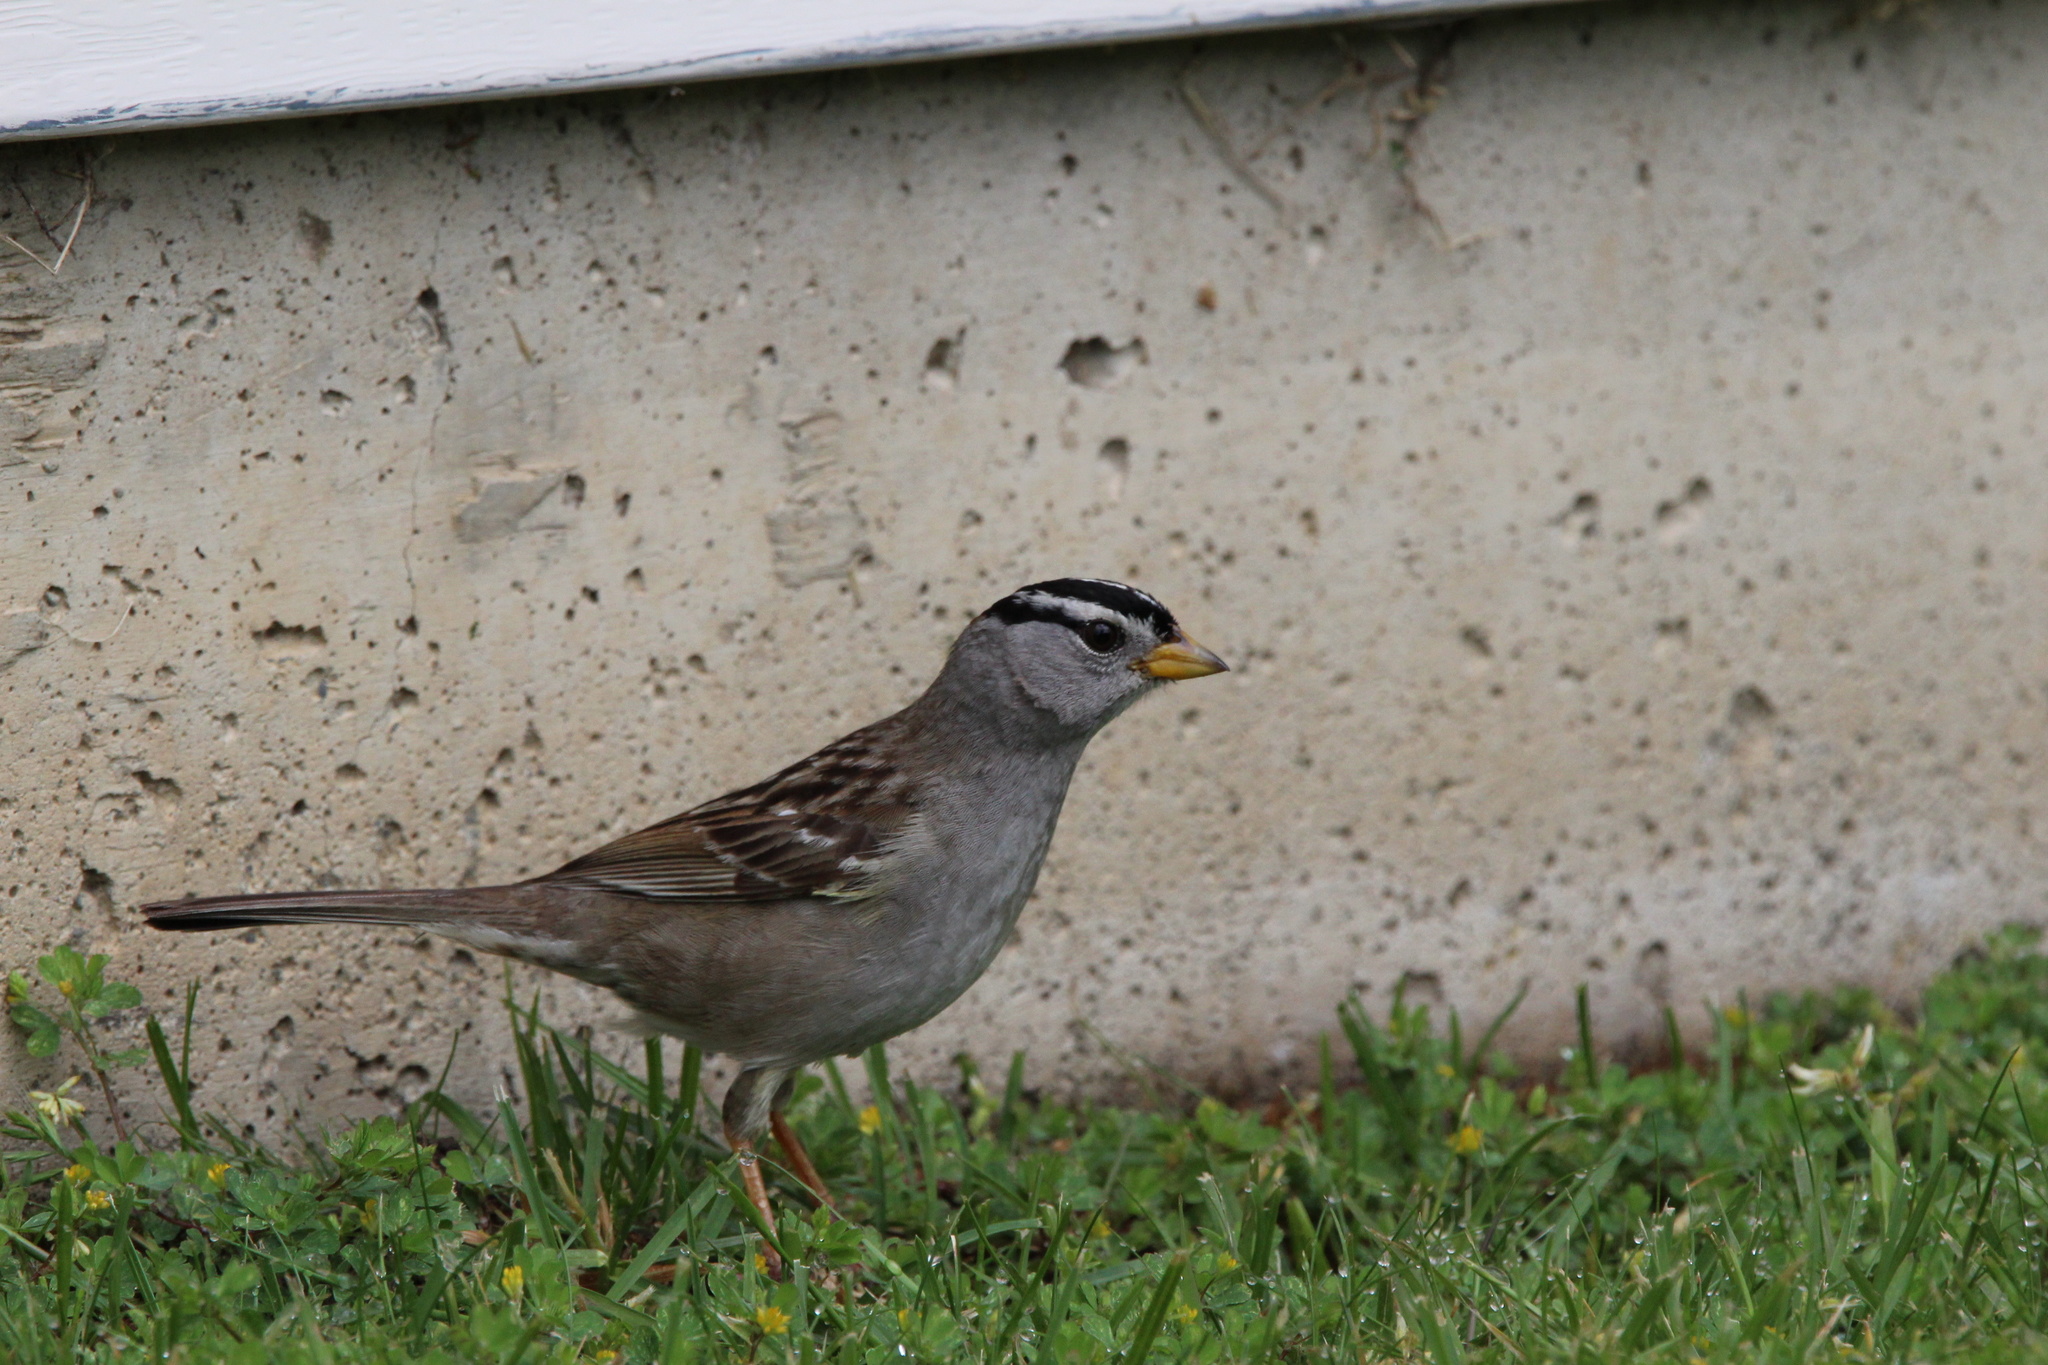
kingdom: Animalia
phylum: Chordata
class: Aves
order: Passeriformes
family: Passerellidae
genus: Zonotrichia
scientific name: Zonotrichia leucophrys
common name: White-crowned sparrow
